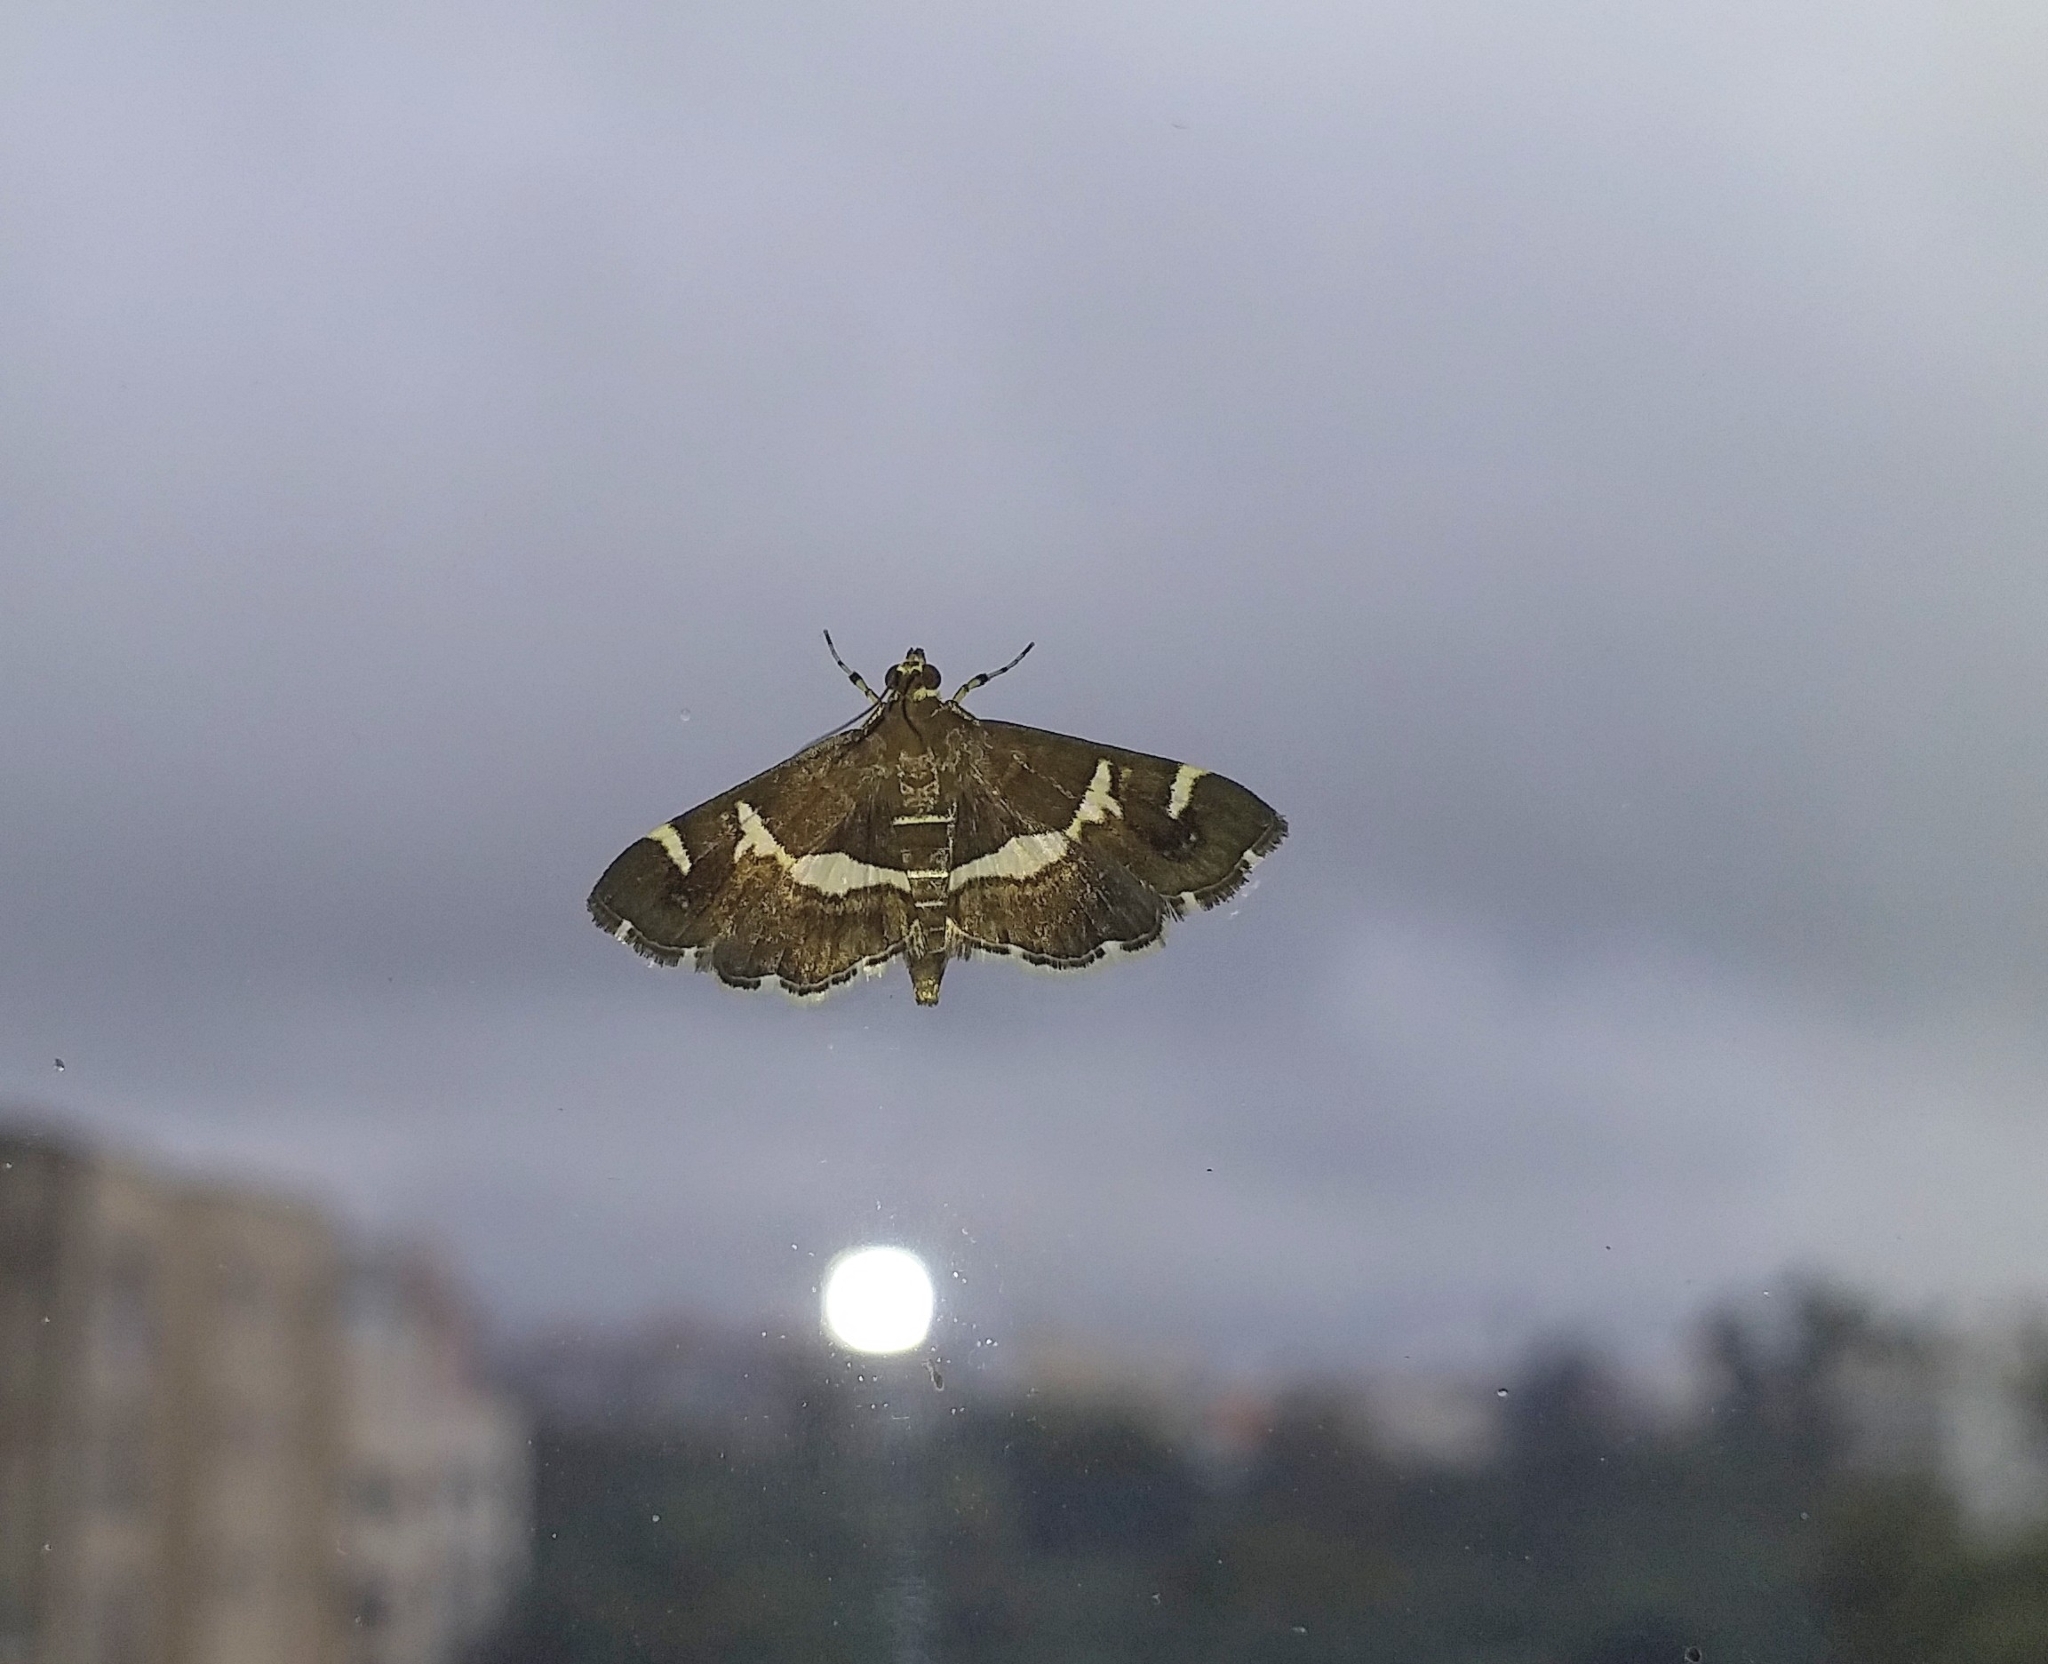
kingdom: Animalia
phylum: Arthropoda
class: Insecta
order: Lepidoptera
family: Crambidae
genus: Spoladea
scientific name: Spoladea recurvalis
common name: Beet webworm moth
